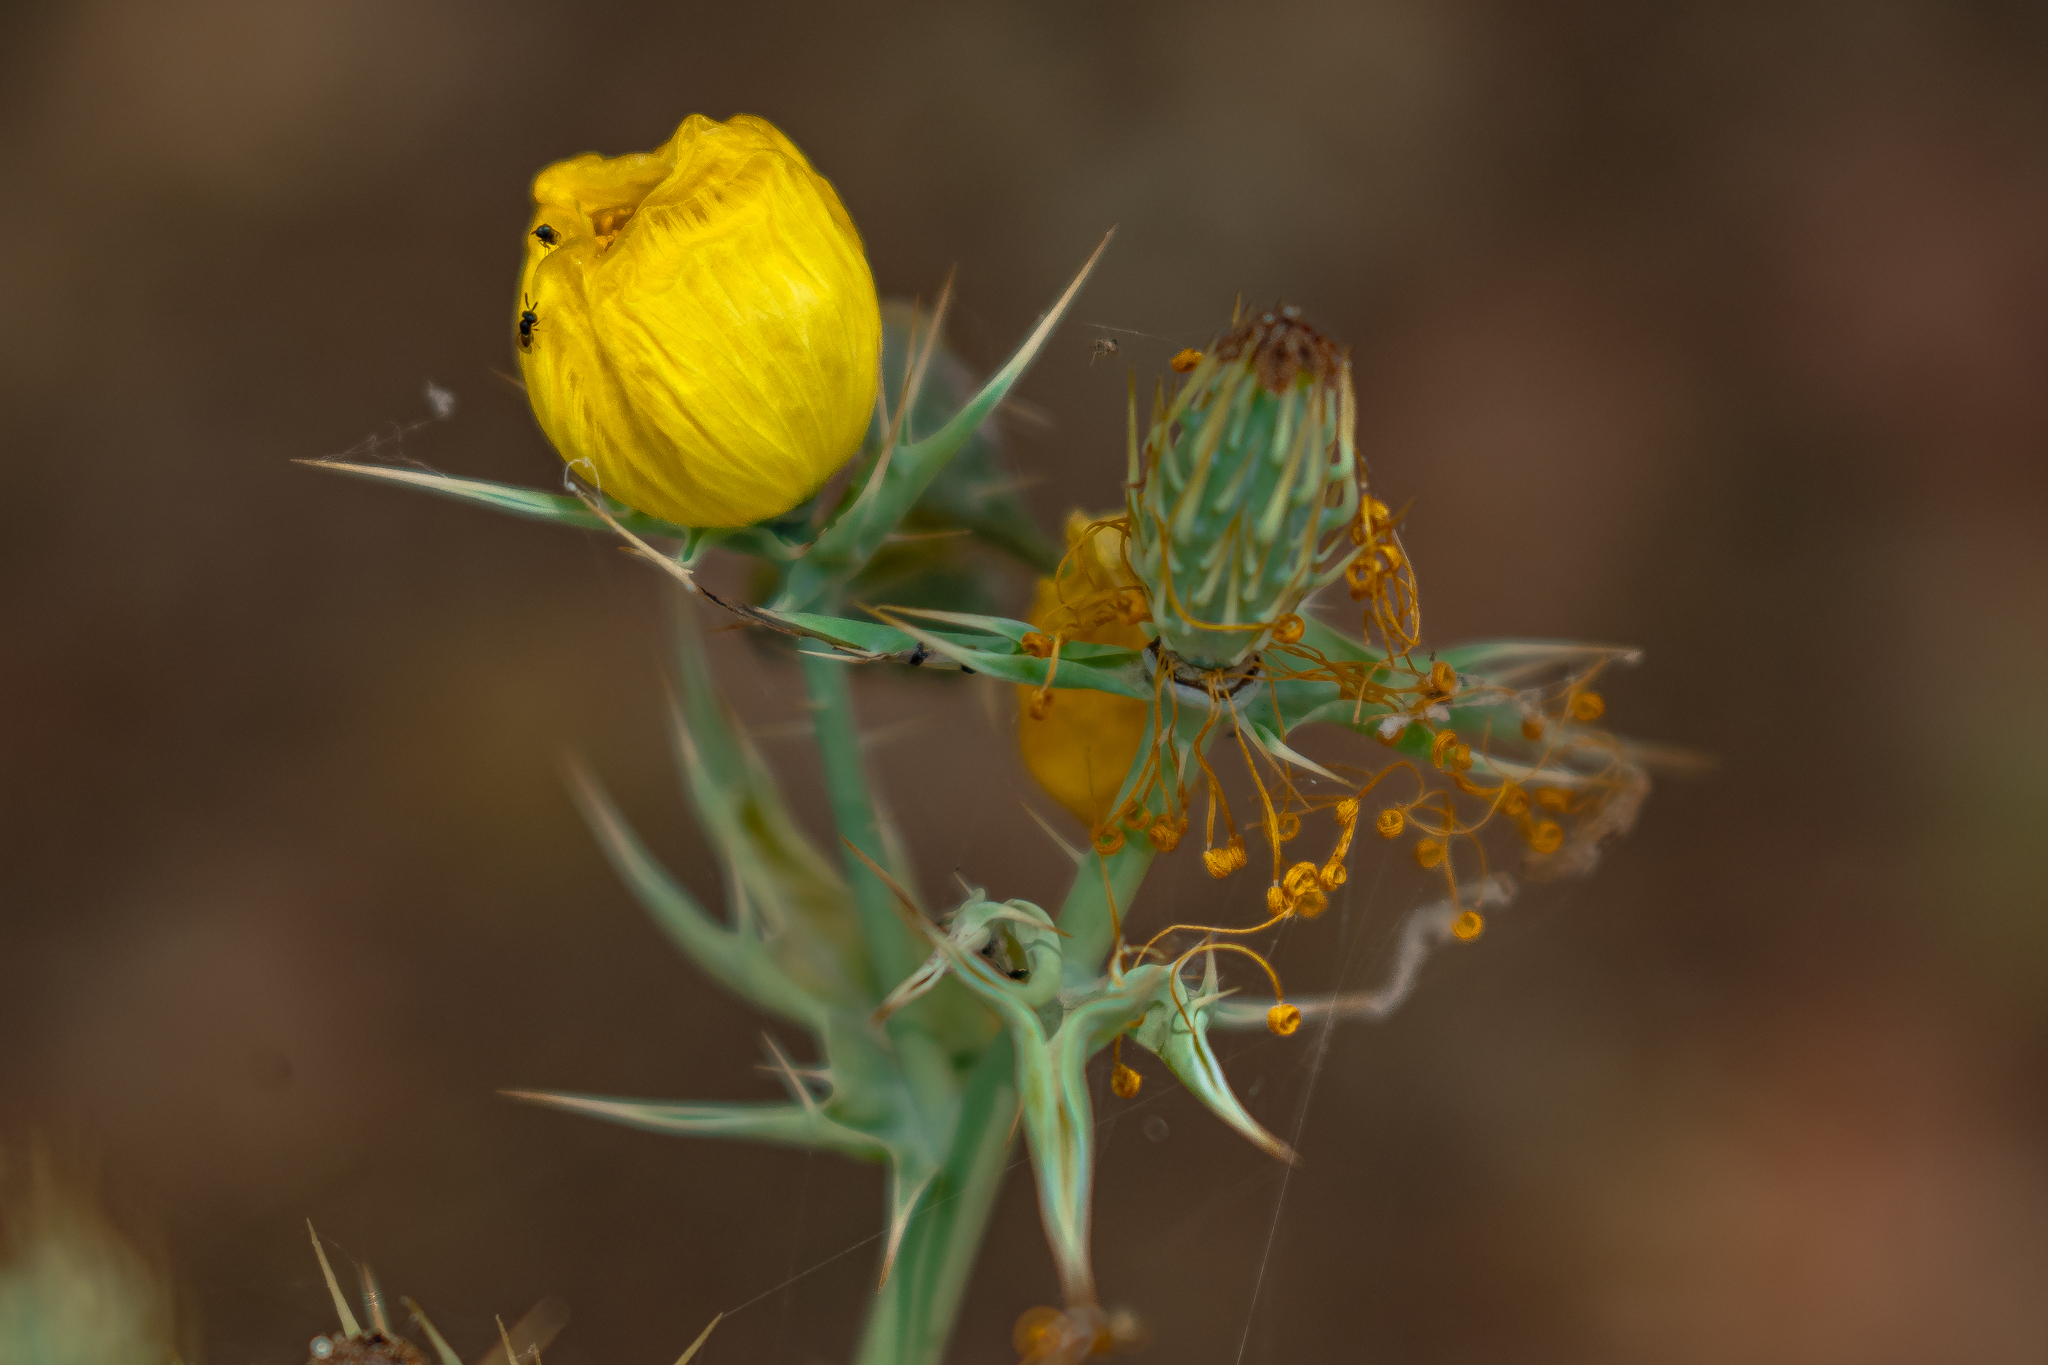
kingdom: Plantae
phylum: Tracheophyta
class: Magnoliopsida
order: Ranunculales
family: Papaveraceae
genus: Argemone
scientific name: Argemone mexicana
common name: Mexican poppy
